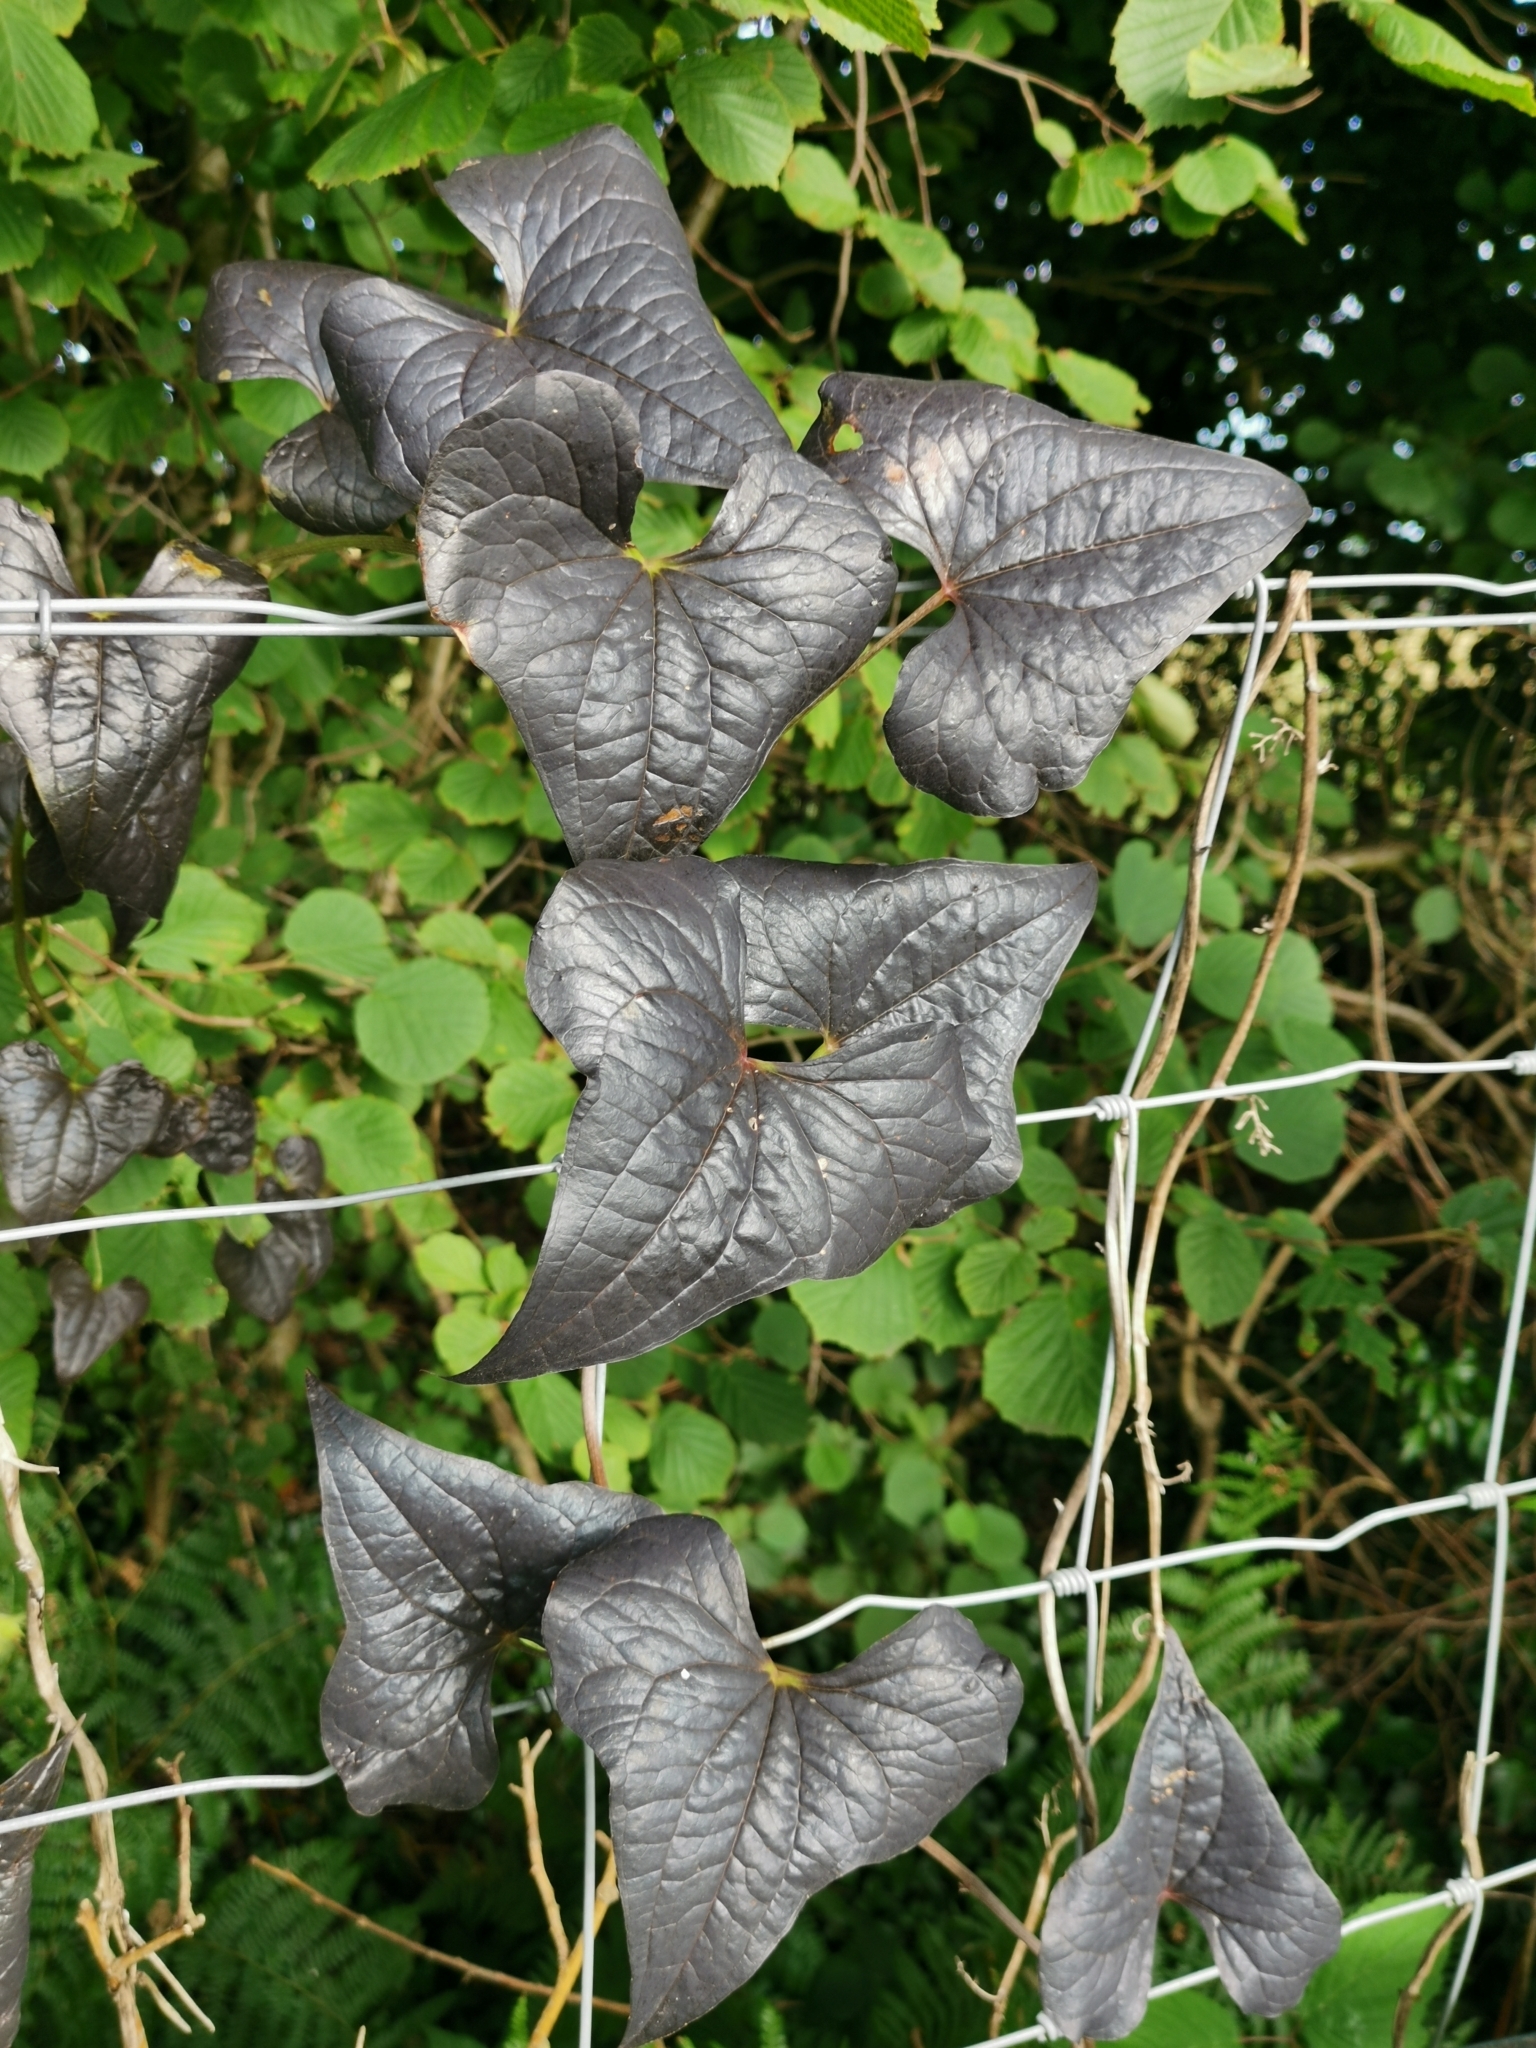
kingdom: Plantae
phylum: Tracheophyta
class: Liliopsida
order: Dioscoreales
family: Dioscoreaceae
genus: Dioscorea
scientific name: Dioscorea communis
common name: Black-bindweed
